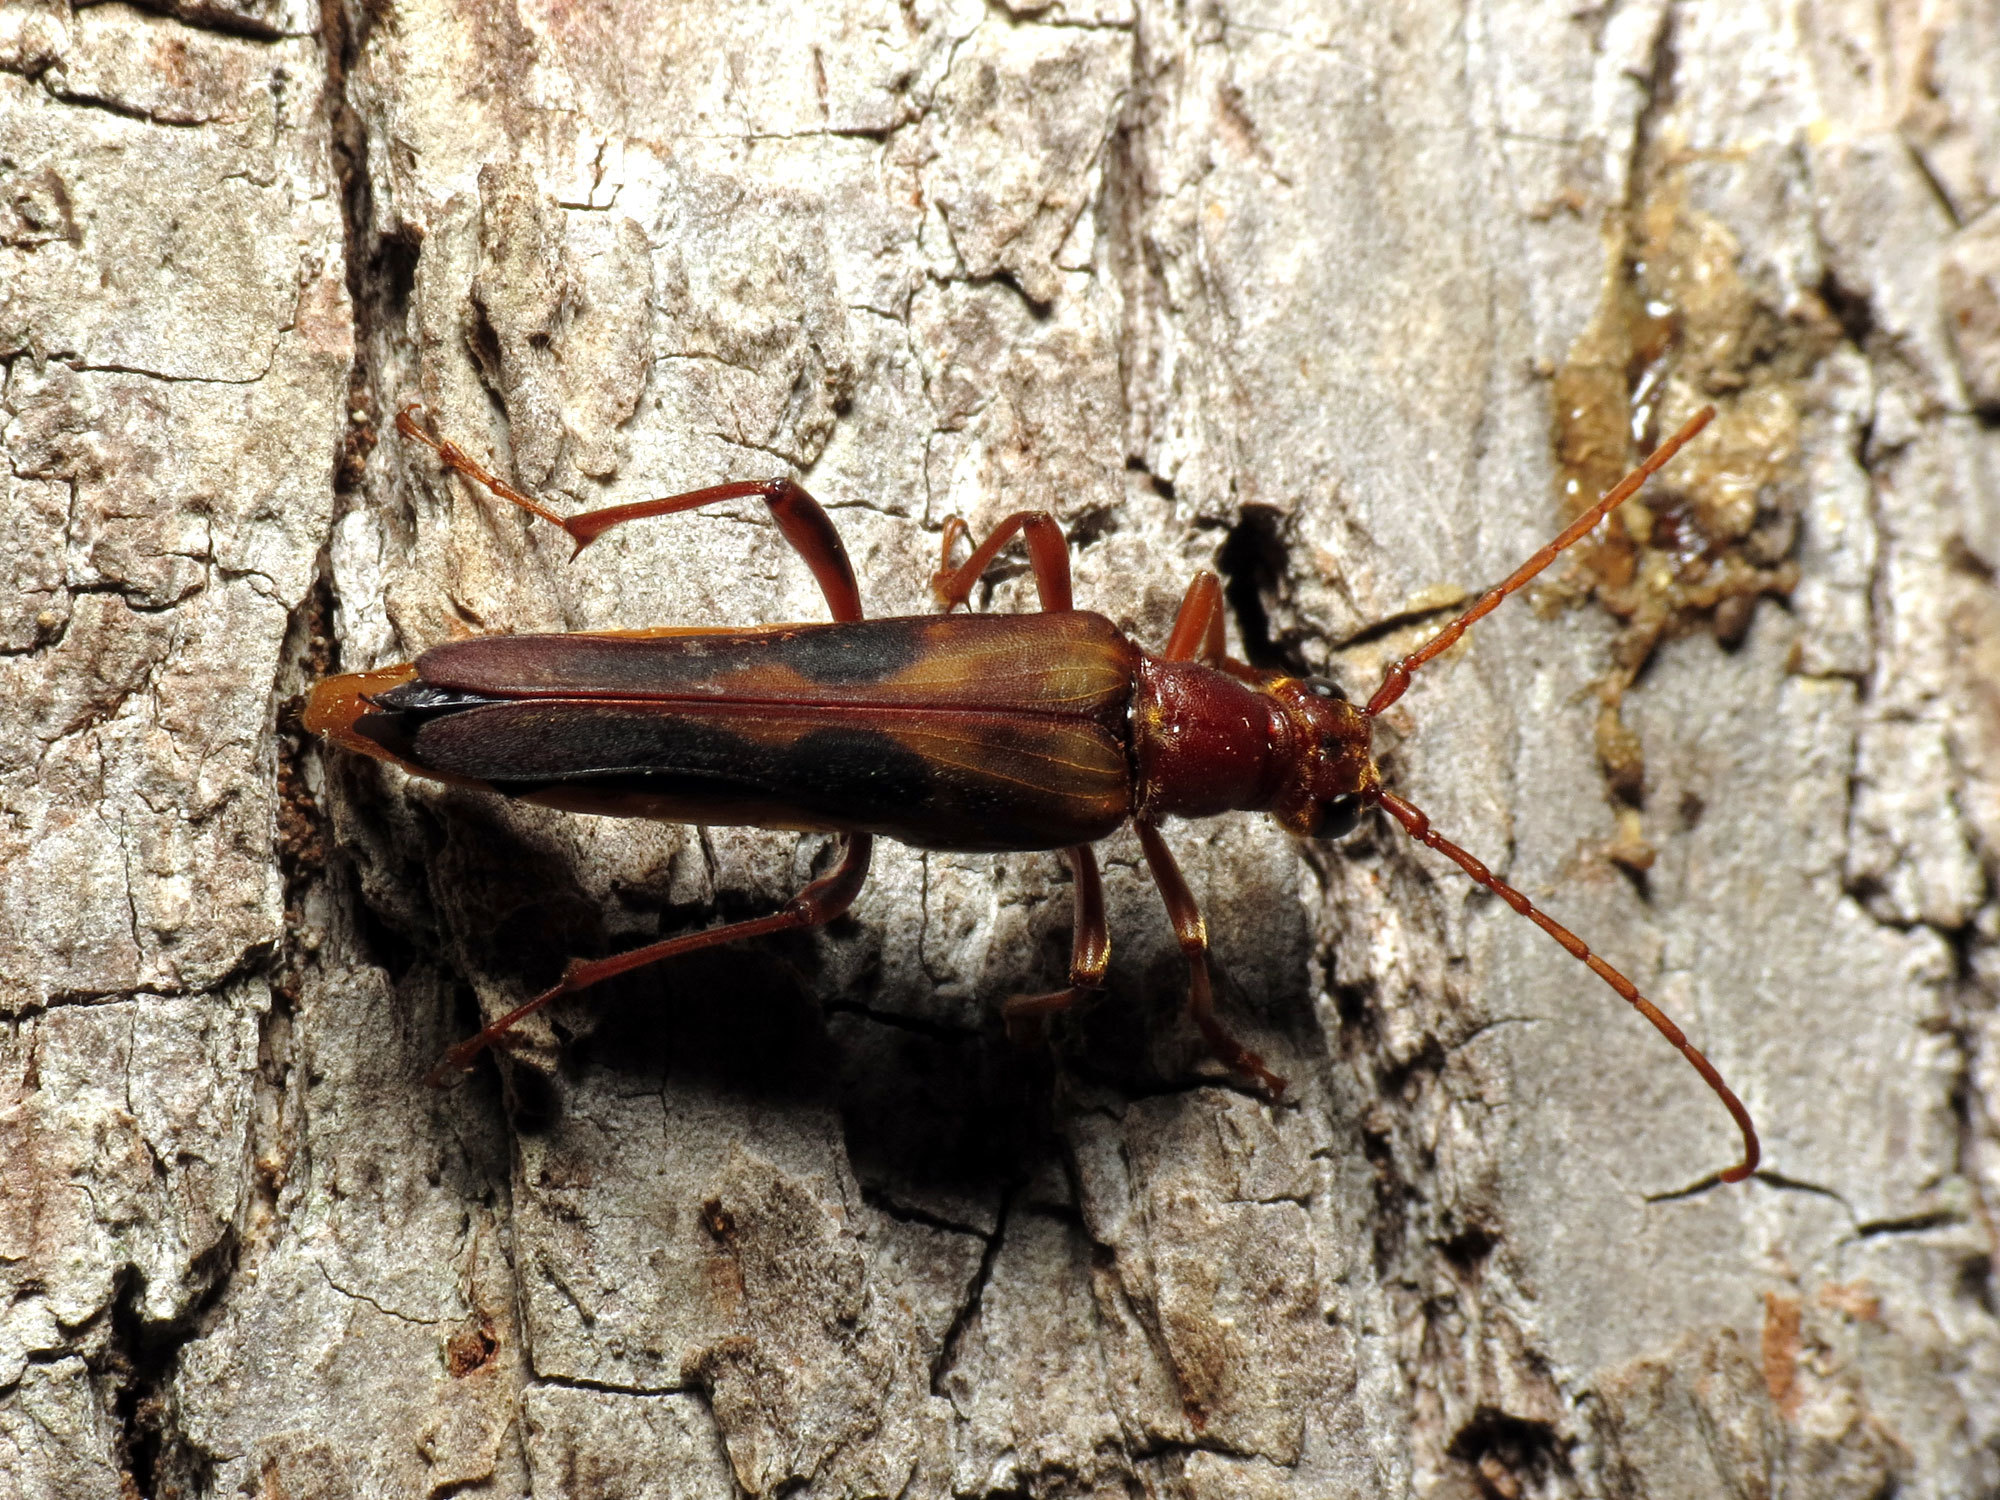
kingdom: Animalia
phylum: Arthropoda
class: Insecta
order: Coleoptera
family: Cerambycidae
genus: Bellamira
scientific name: Bellamira scalaris
